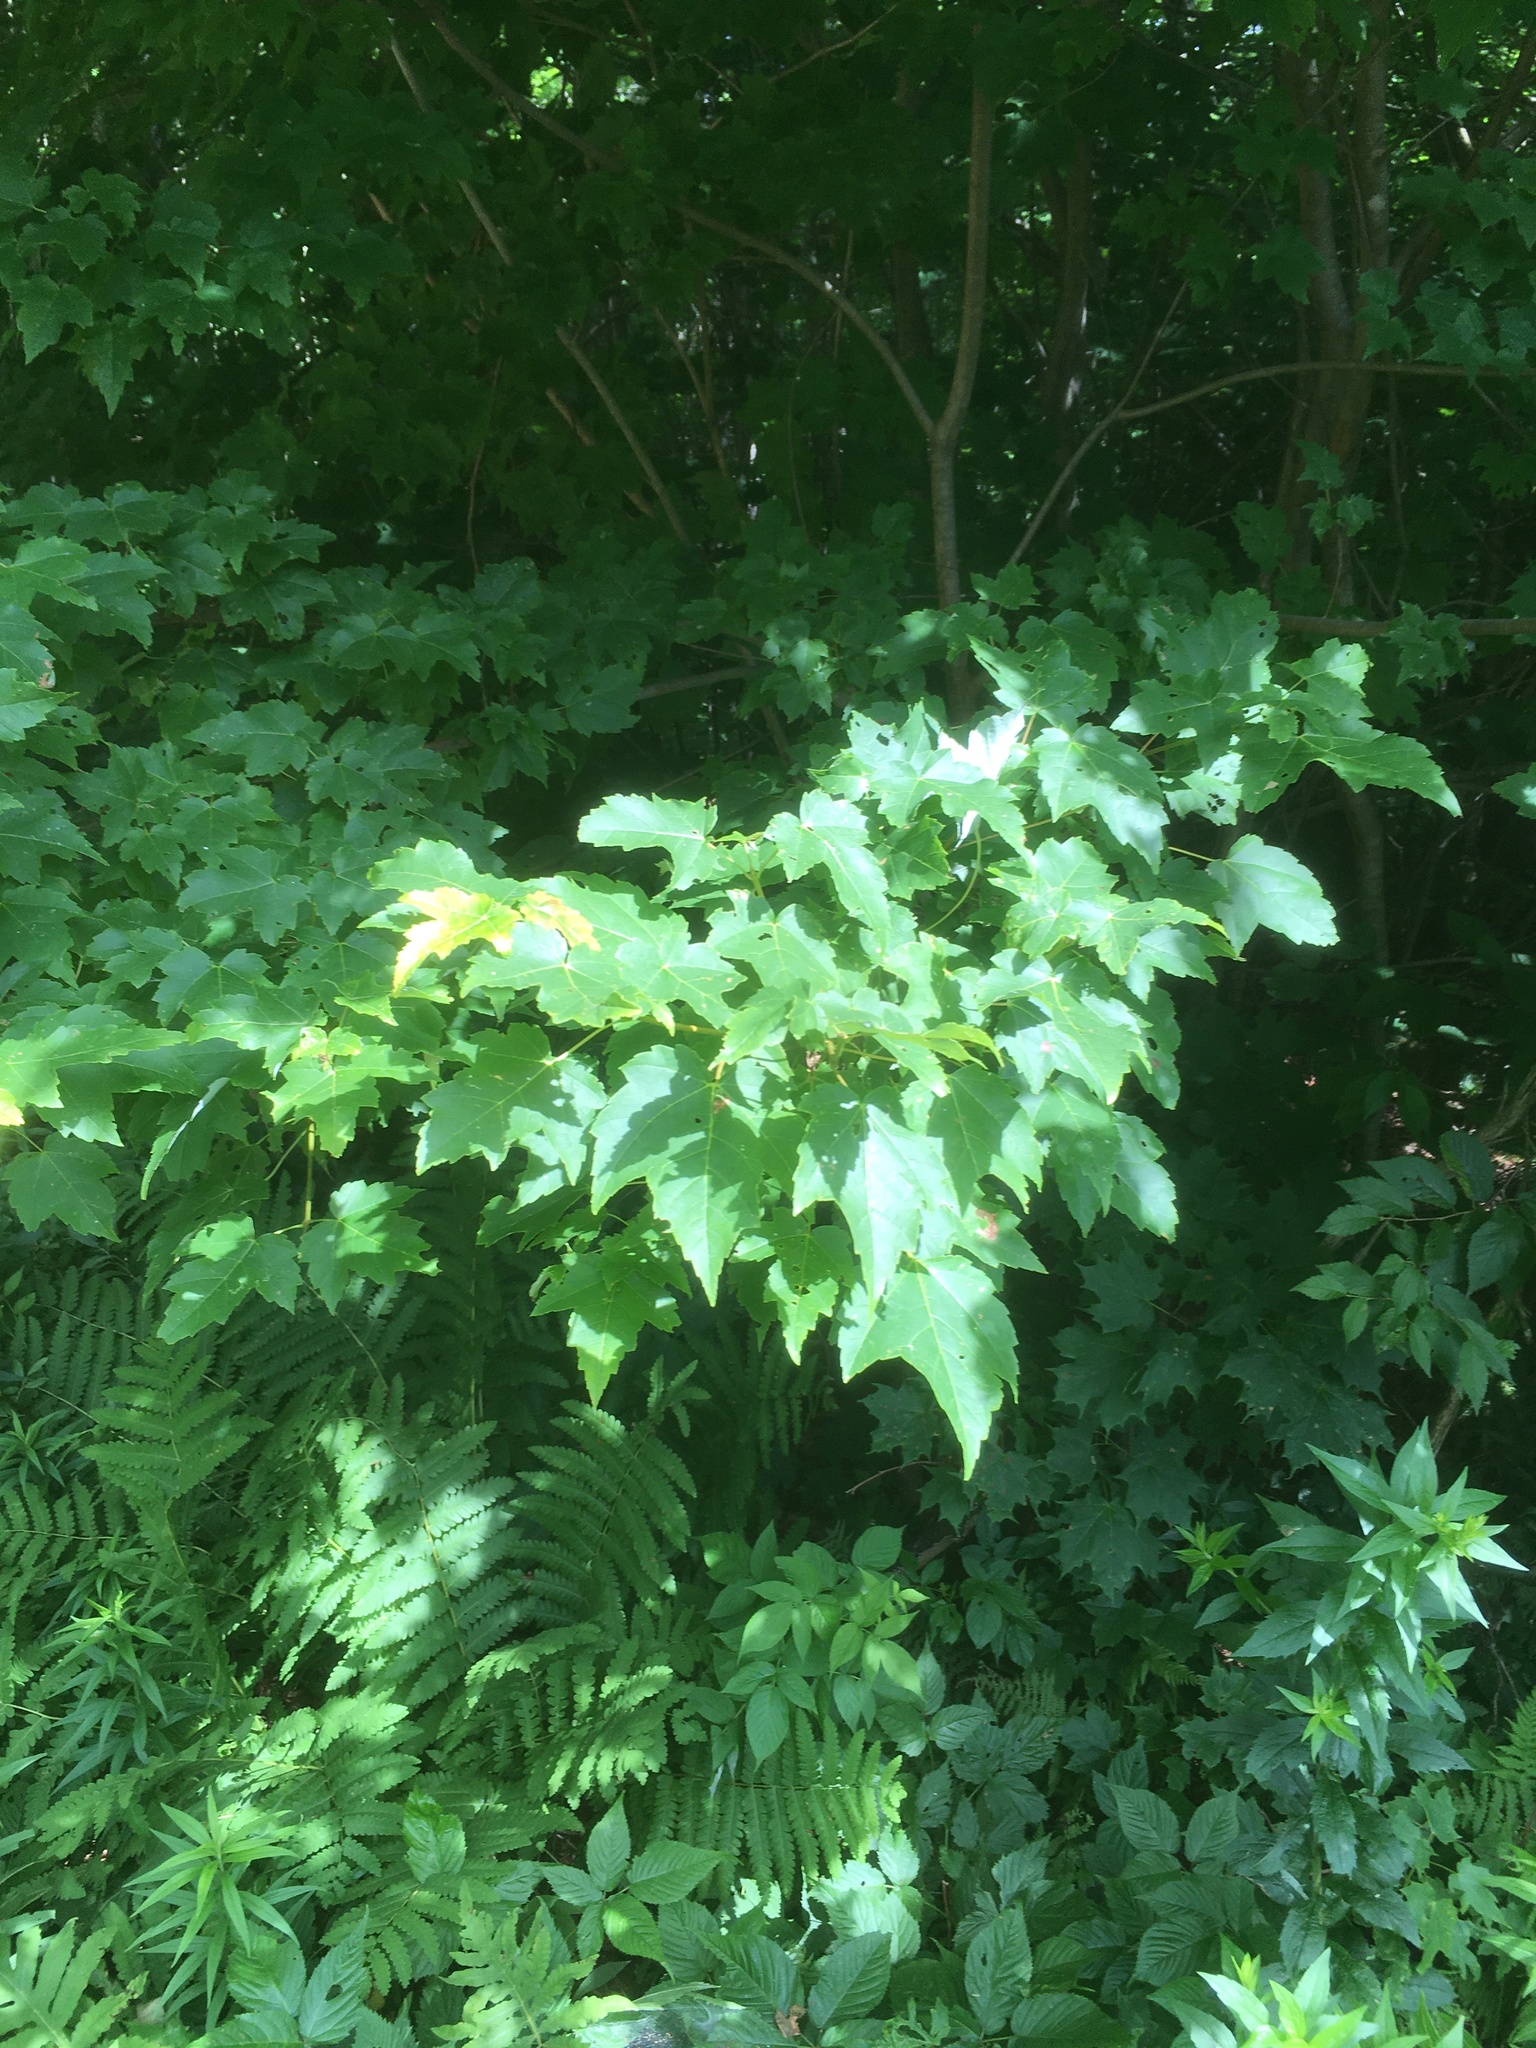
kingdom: Plantae
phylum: Tracheophyta
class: Magnoliopsida
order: Sapindales
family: Sapindaceae
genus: Acer
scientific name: Acer rubrum
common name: Red maple
